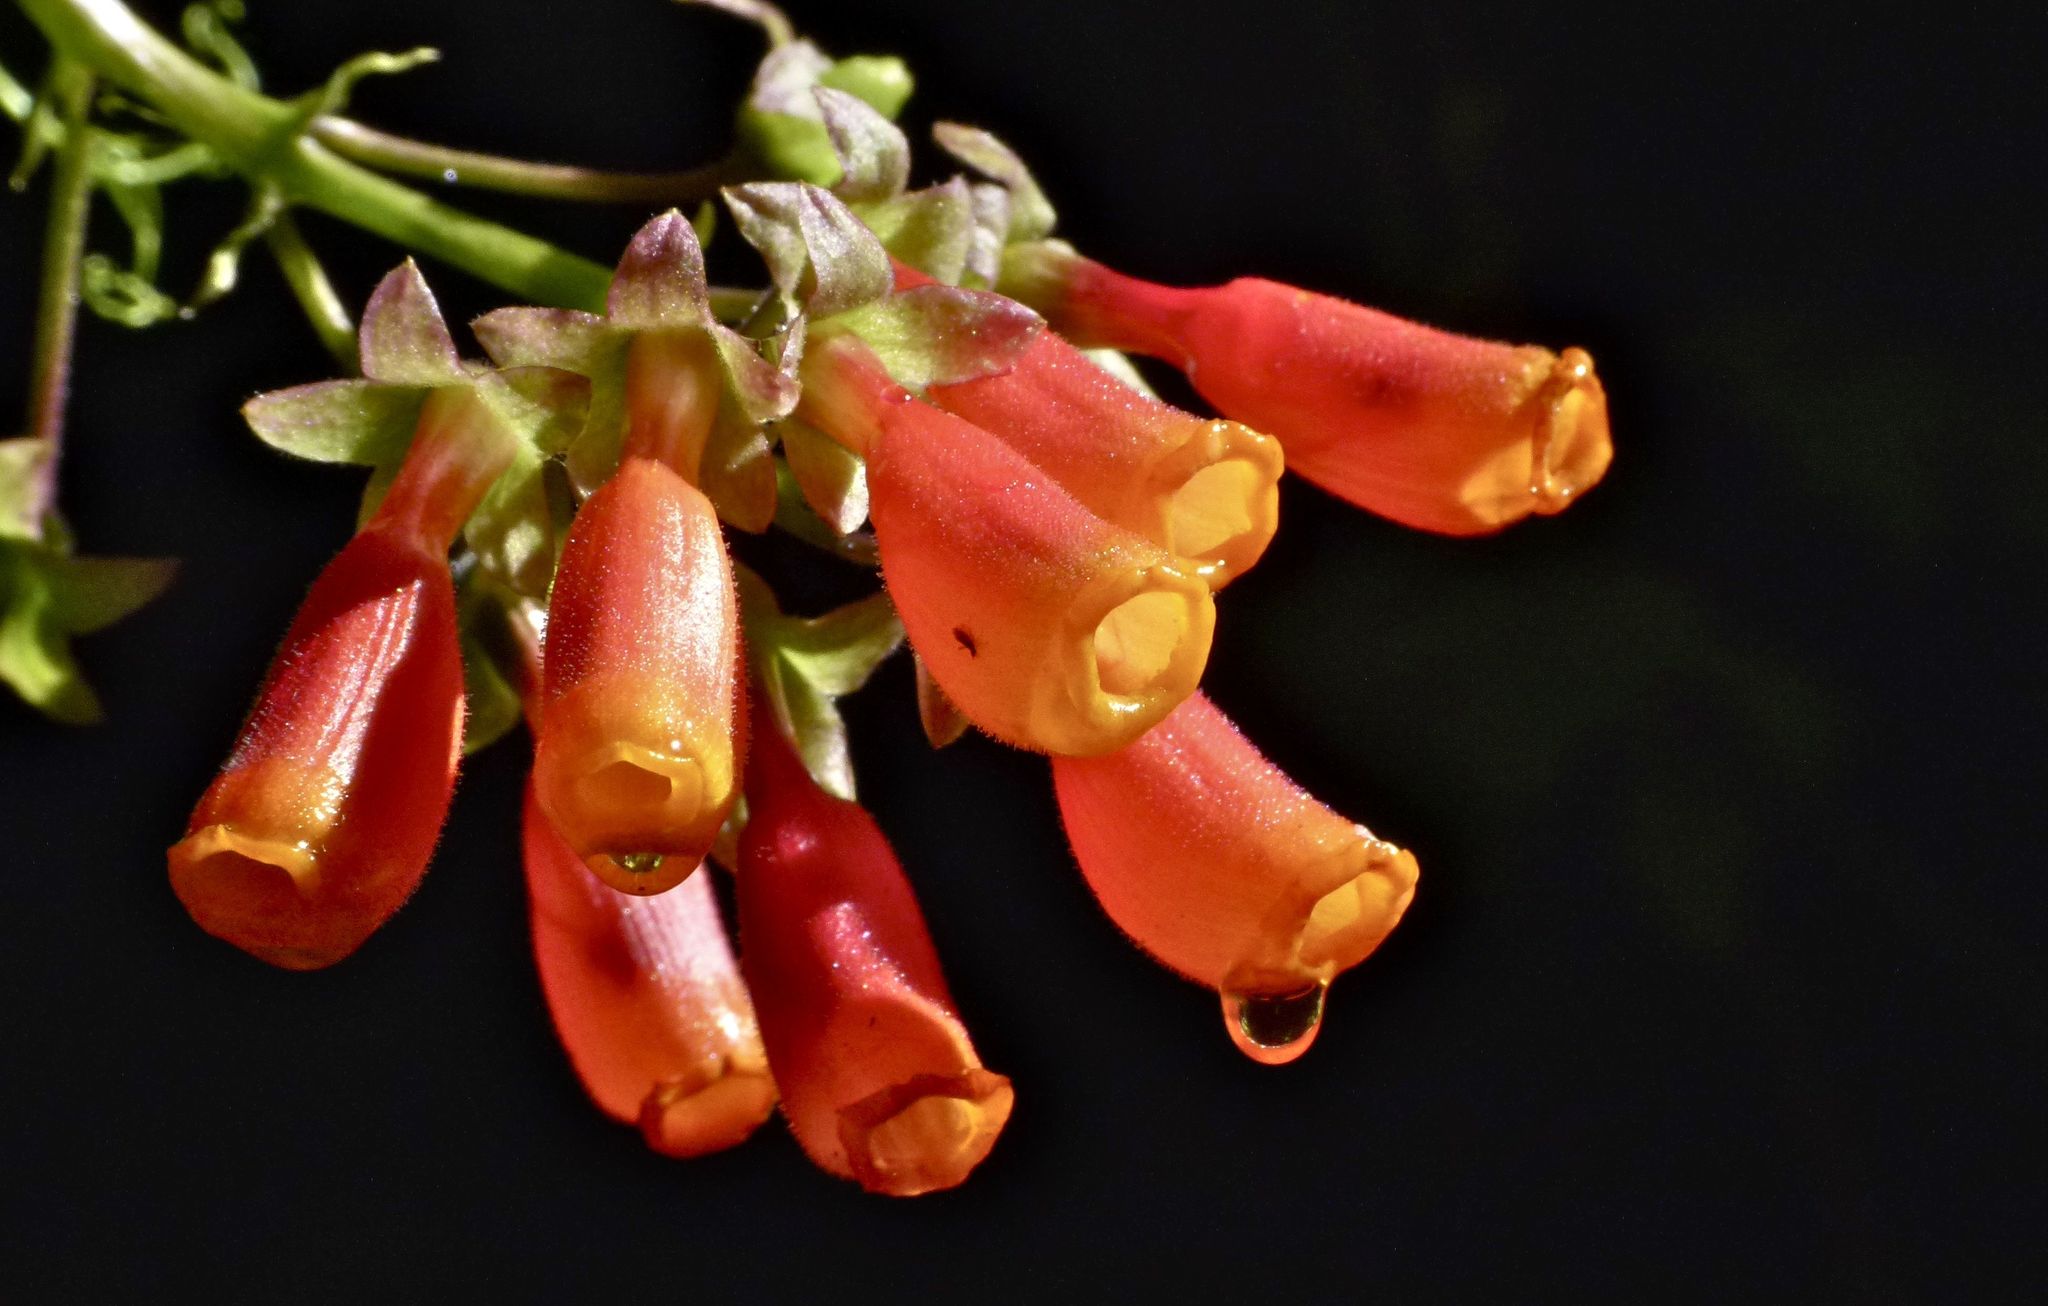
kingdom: Plantae
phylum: Tracheophyta
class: Magnoliopsida
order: Lamiales
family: Bignoniaceae
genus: Eccremocarpus
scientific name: Eccremocarpus scaber
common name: Chilean glory-flower
